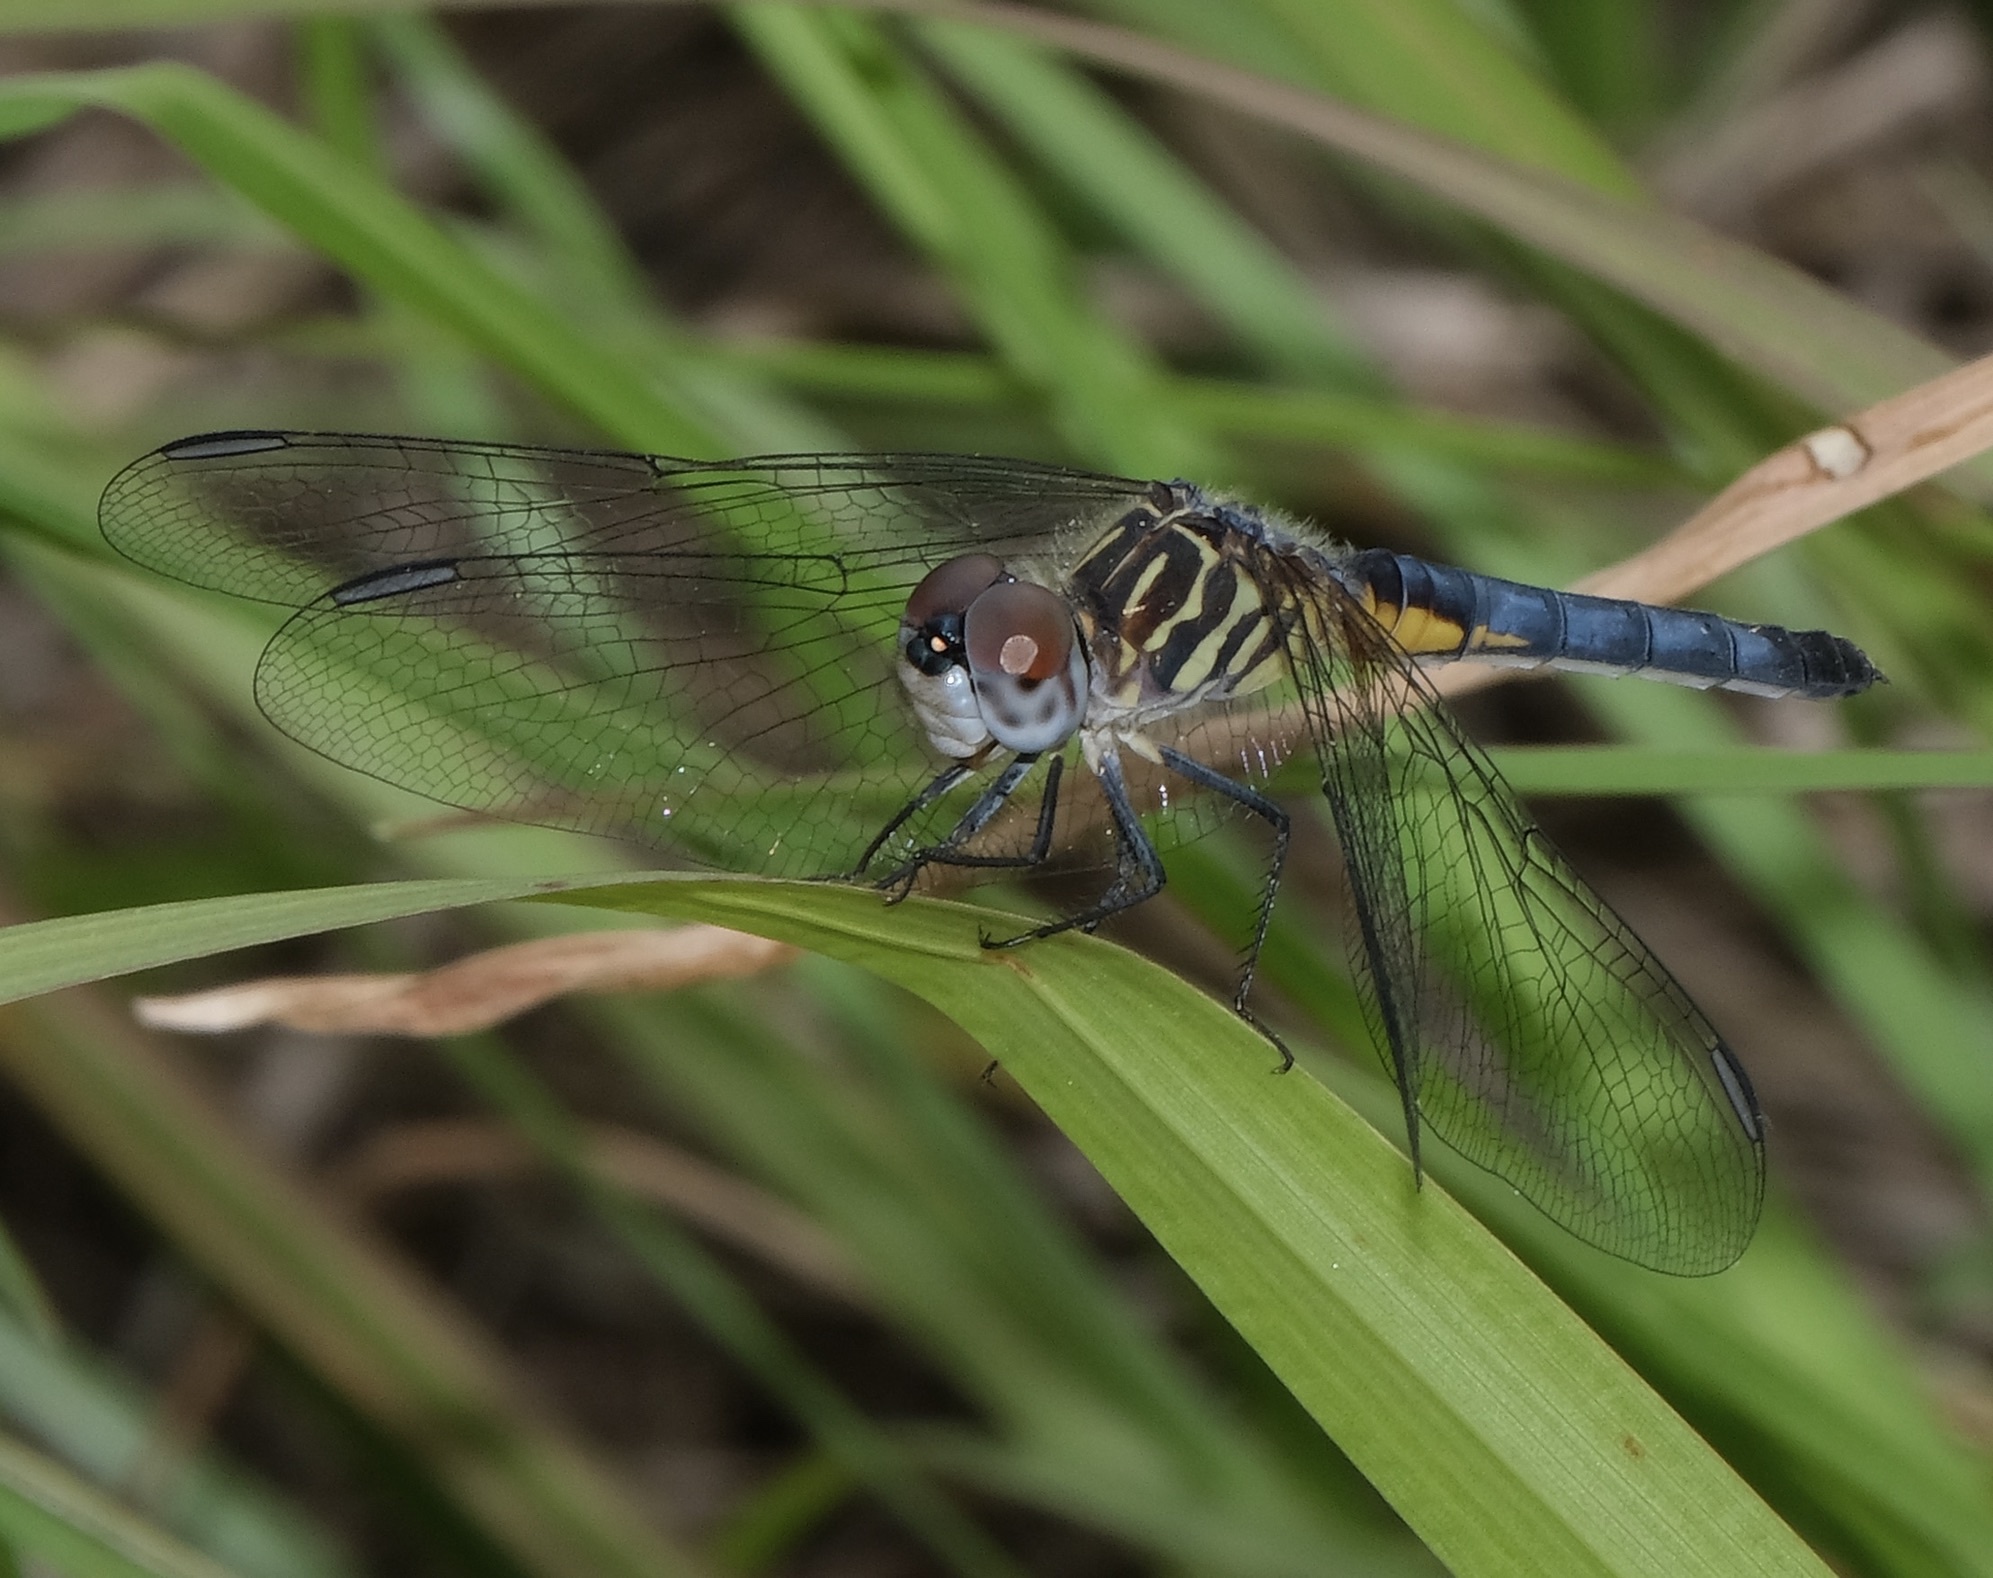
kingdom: Animalia
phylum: Arthropoda
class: Insecta
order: Odonata
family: Libellulidae
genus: Pachydiplax
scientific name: Pachydiplax longipennis
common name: Blue dasher
